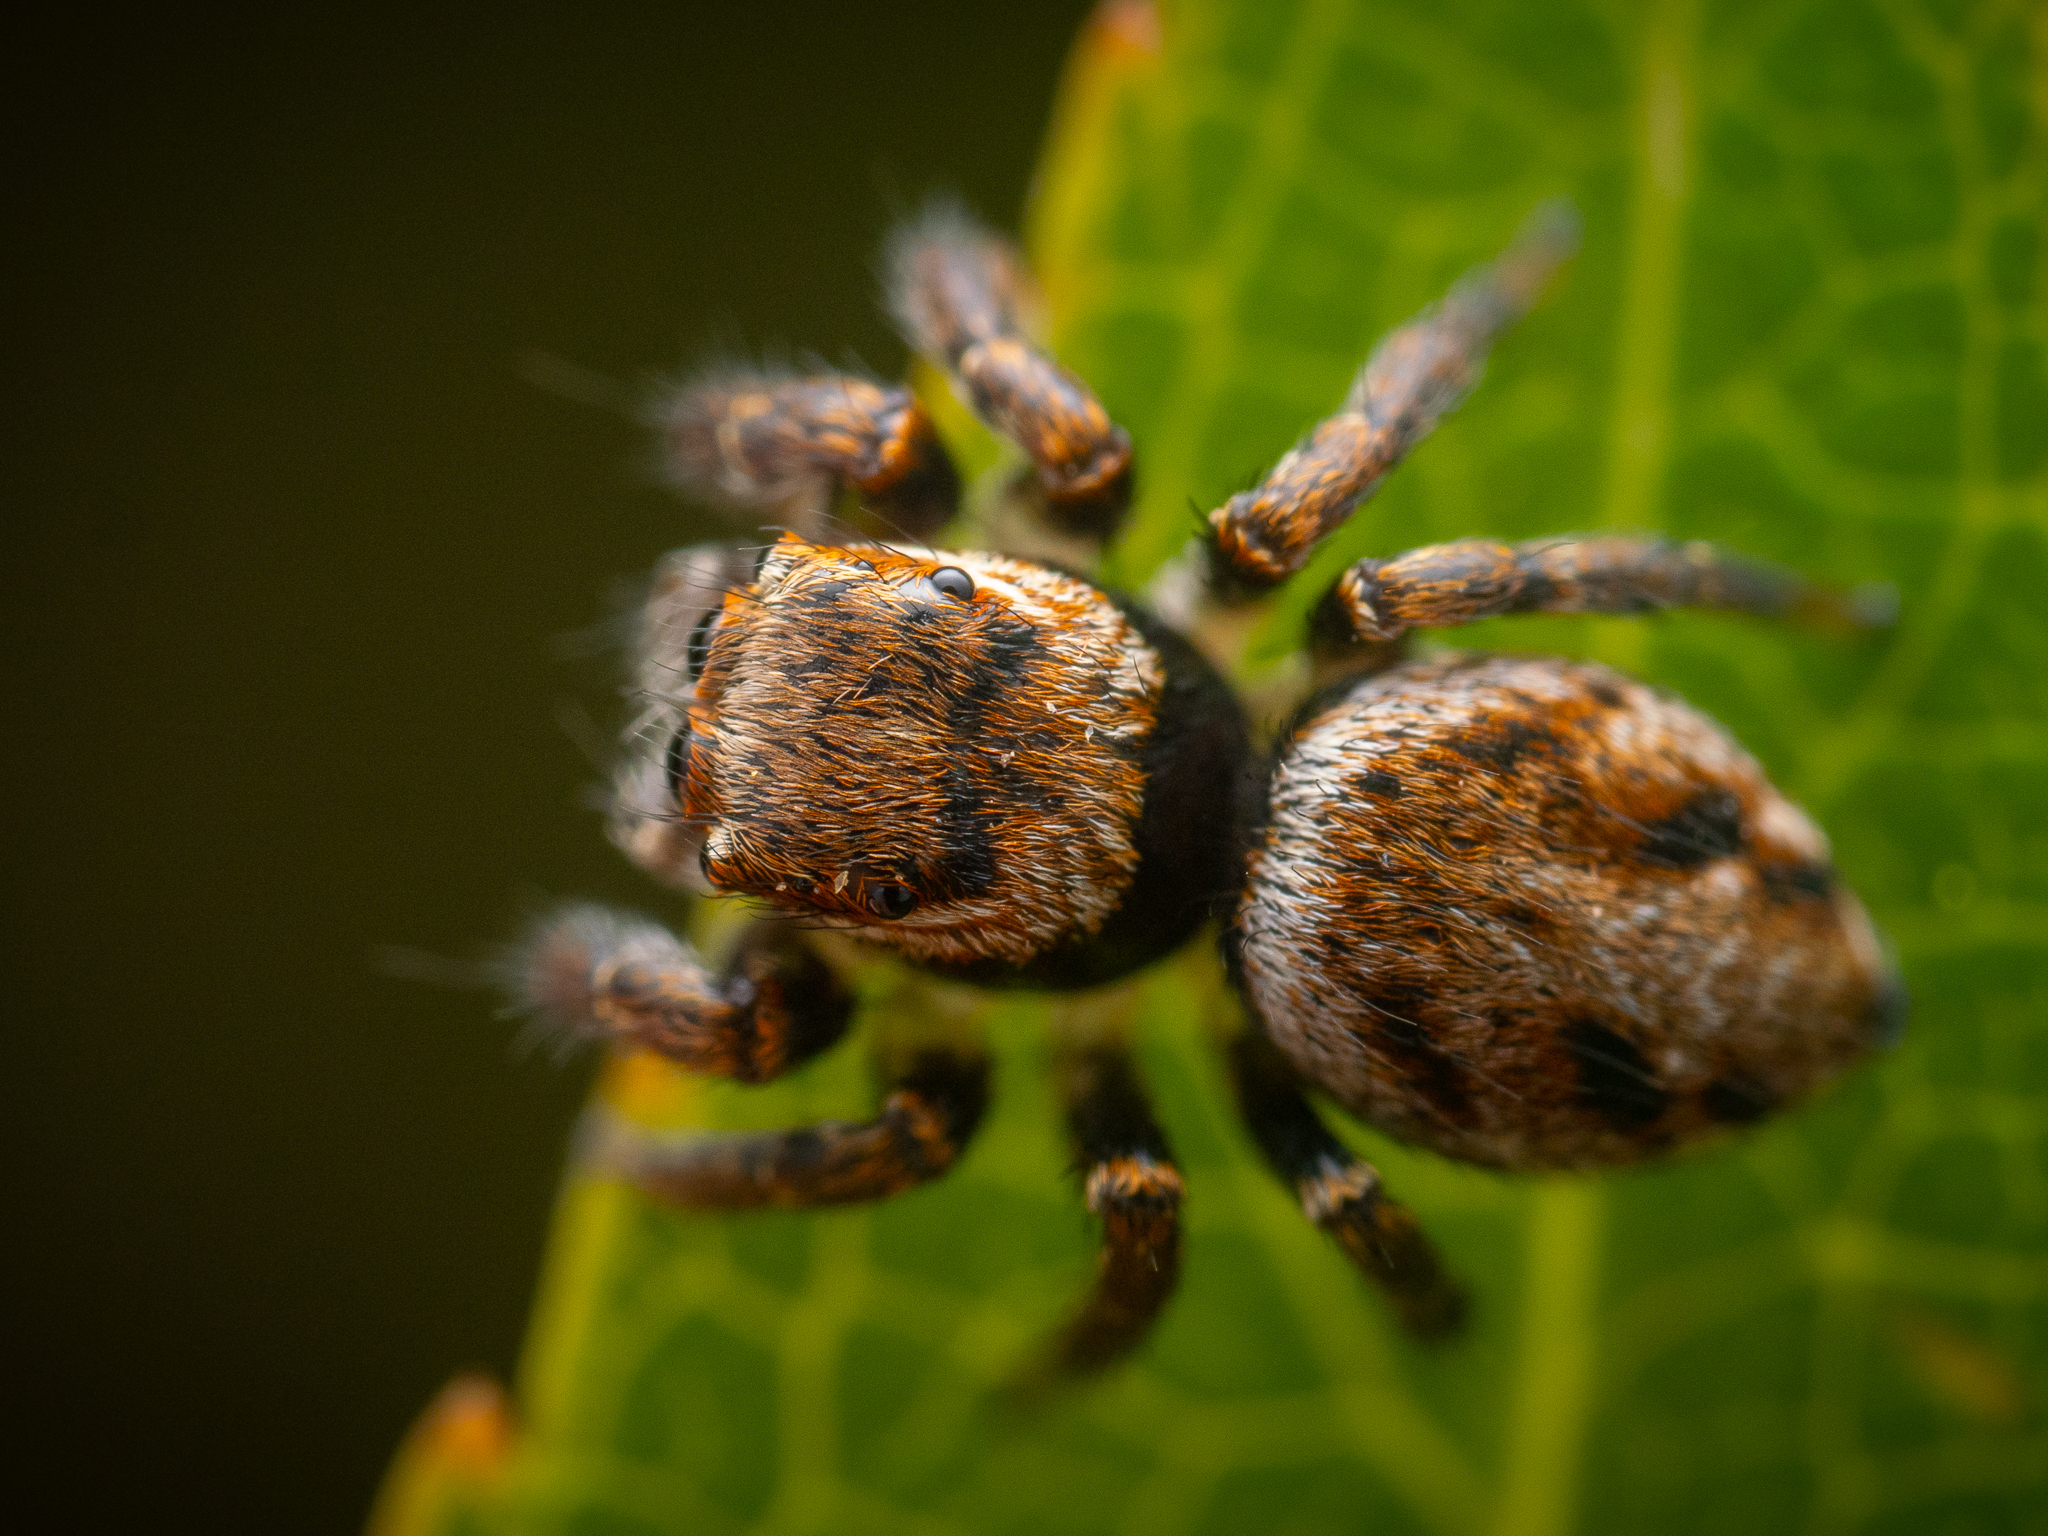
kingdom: Animalia
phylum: Arthropoda
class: Arachnida
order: Araneae
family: Salticidae
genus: Evarcha
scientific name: Evarcha falcata
